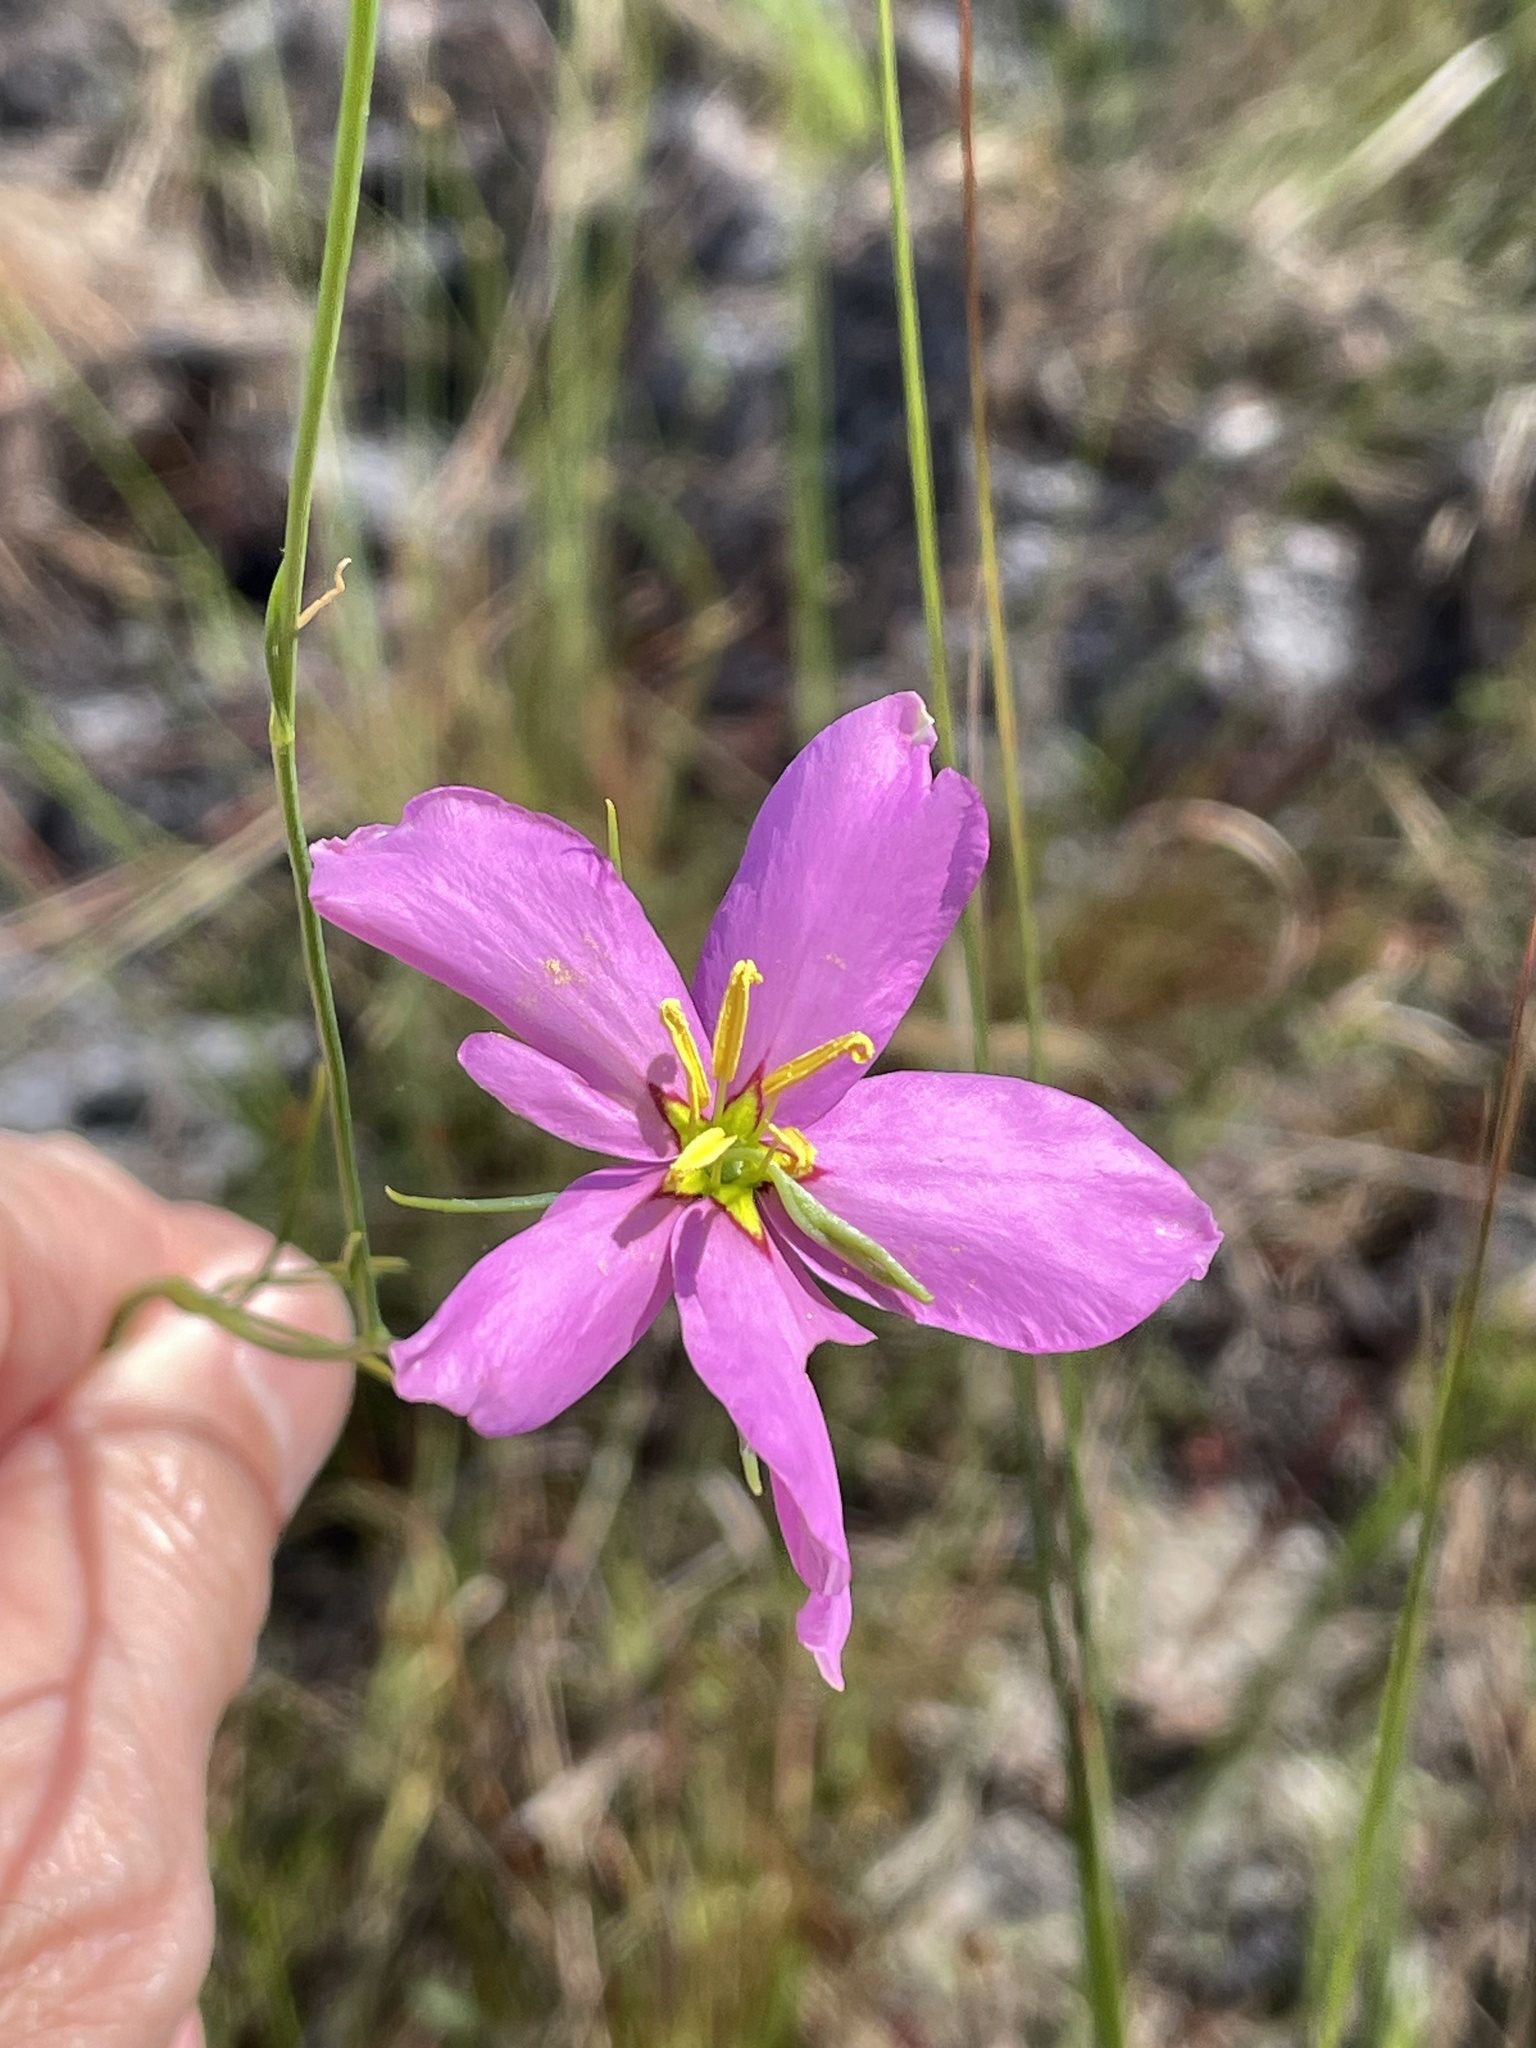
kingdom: Plantae
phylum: Tracheophyta
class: Magnoliopsida
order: Gentianales
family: Gentianaceae
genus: Sabatia
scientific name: Sabatia grandiflora
